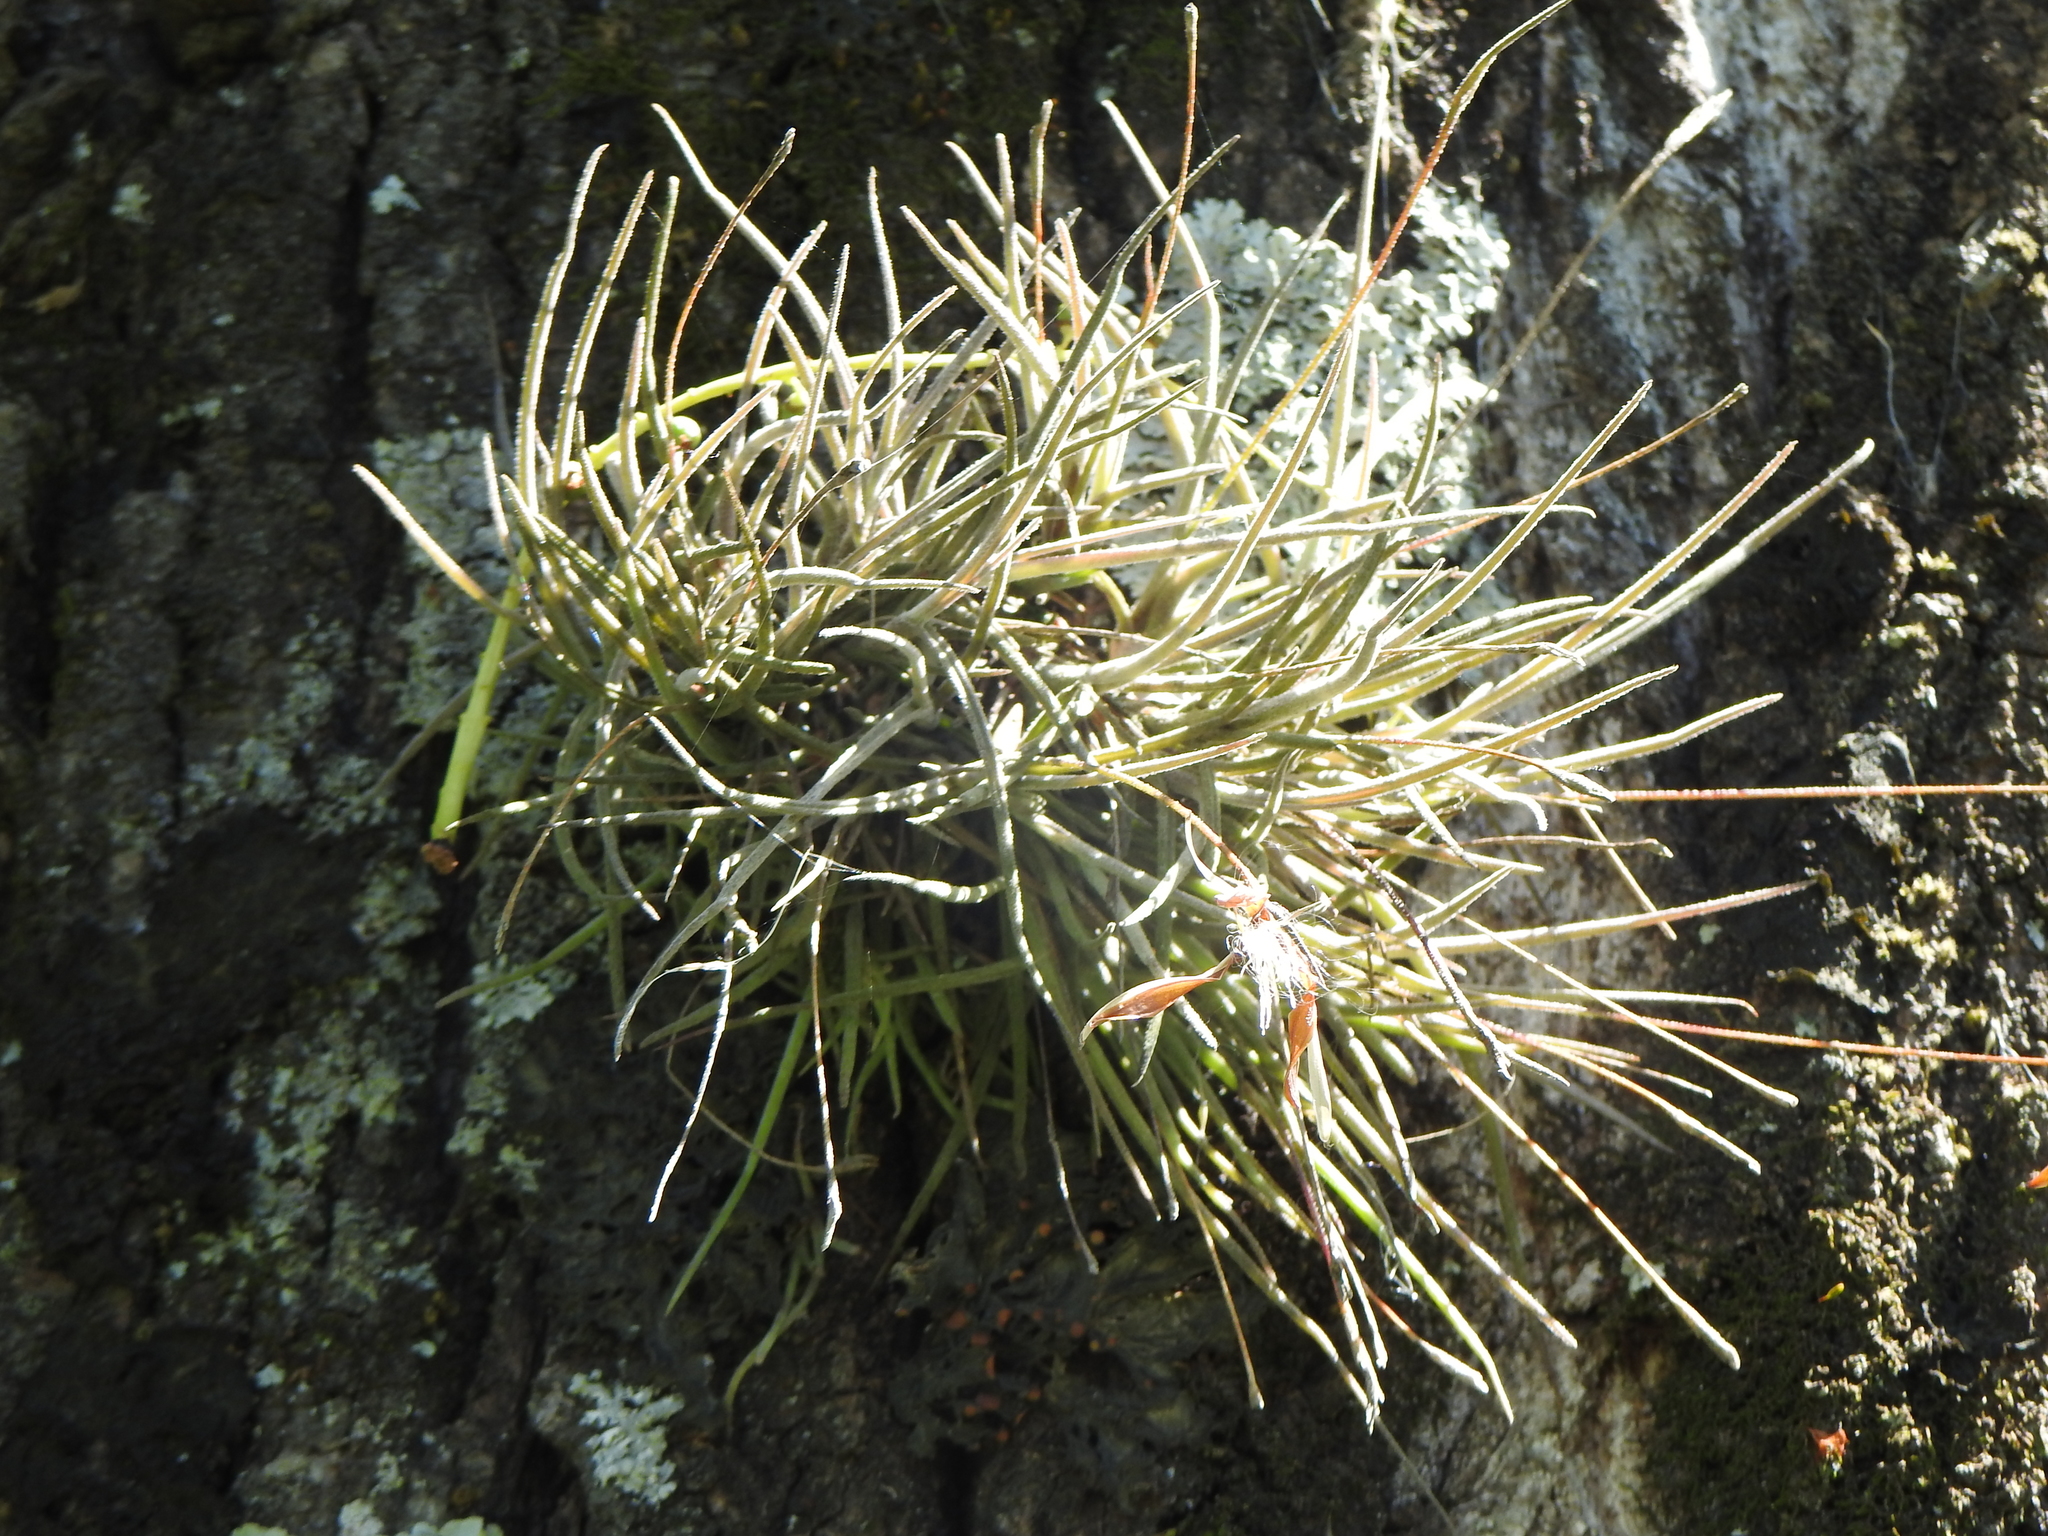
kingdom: Plantae
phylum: Tracheophyta
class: Liliopsida
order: Poales
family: Bromeliaceae
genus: Tillandsia
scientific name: Tillandsia recurvata
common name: Small ballmoss
